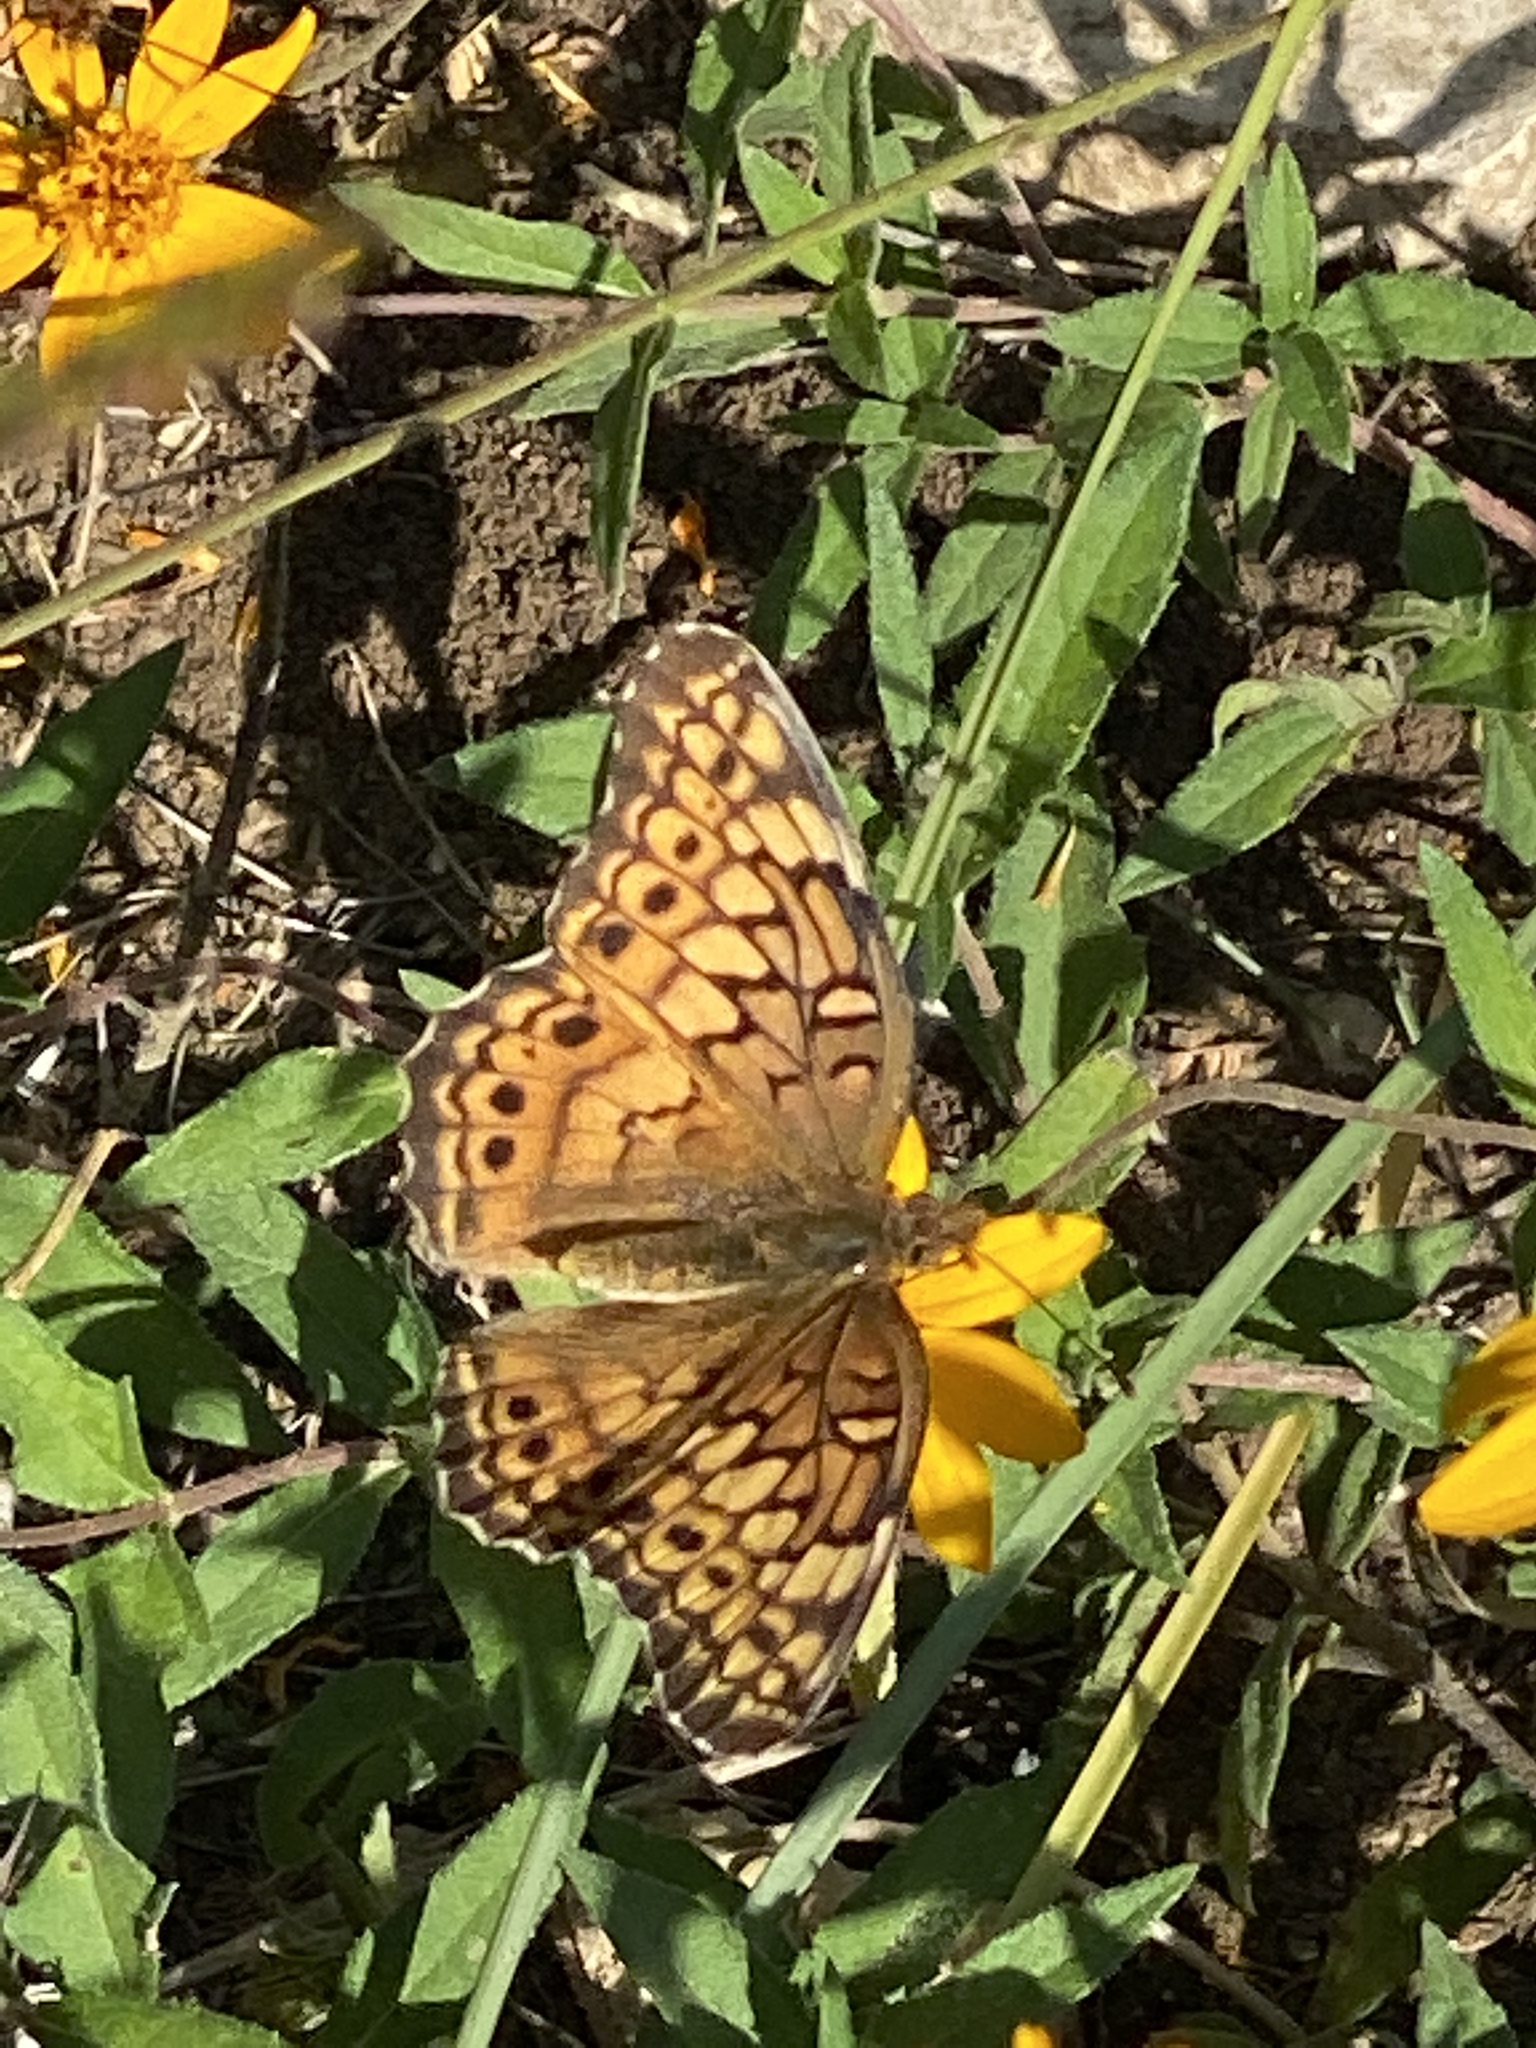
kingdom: Animalia
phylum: Arthropoda
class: Insecta
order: Lepidoptera
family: Nymphalidae
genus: Euptoieta
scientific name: Euptoieta claudia
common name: Variegated fritillary
